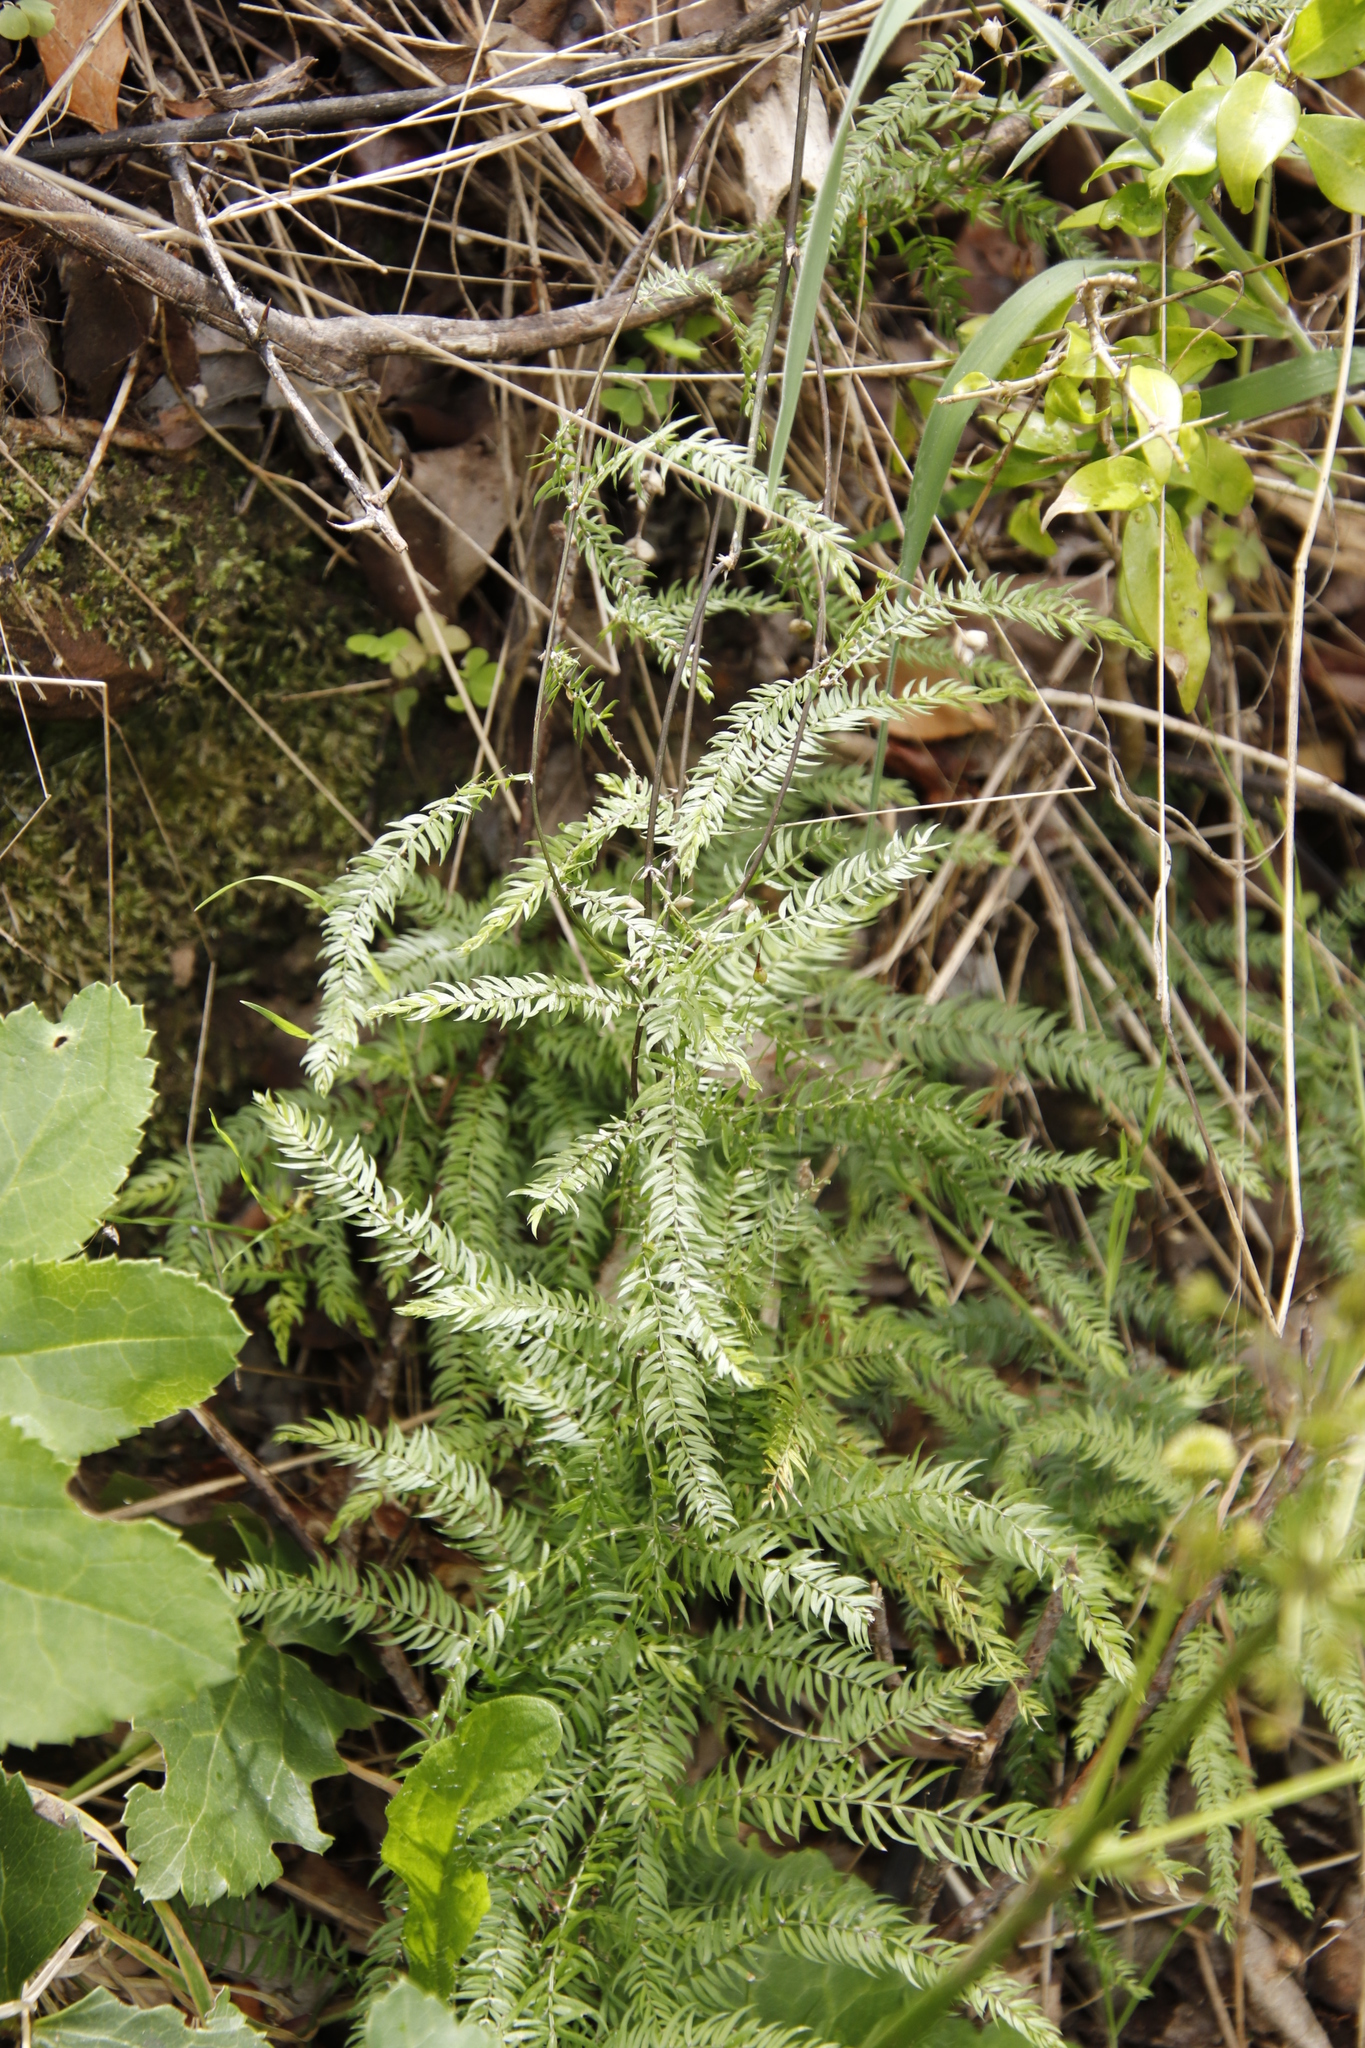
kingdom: Plantae
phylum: Tracheophyta
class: Liliopsida
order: Asparagales
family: Asparagaceae
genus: Asparagus
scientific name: Asparagus scandens
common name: Asparagus-fern
